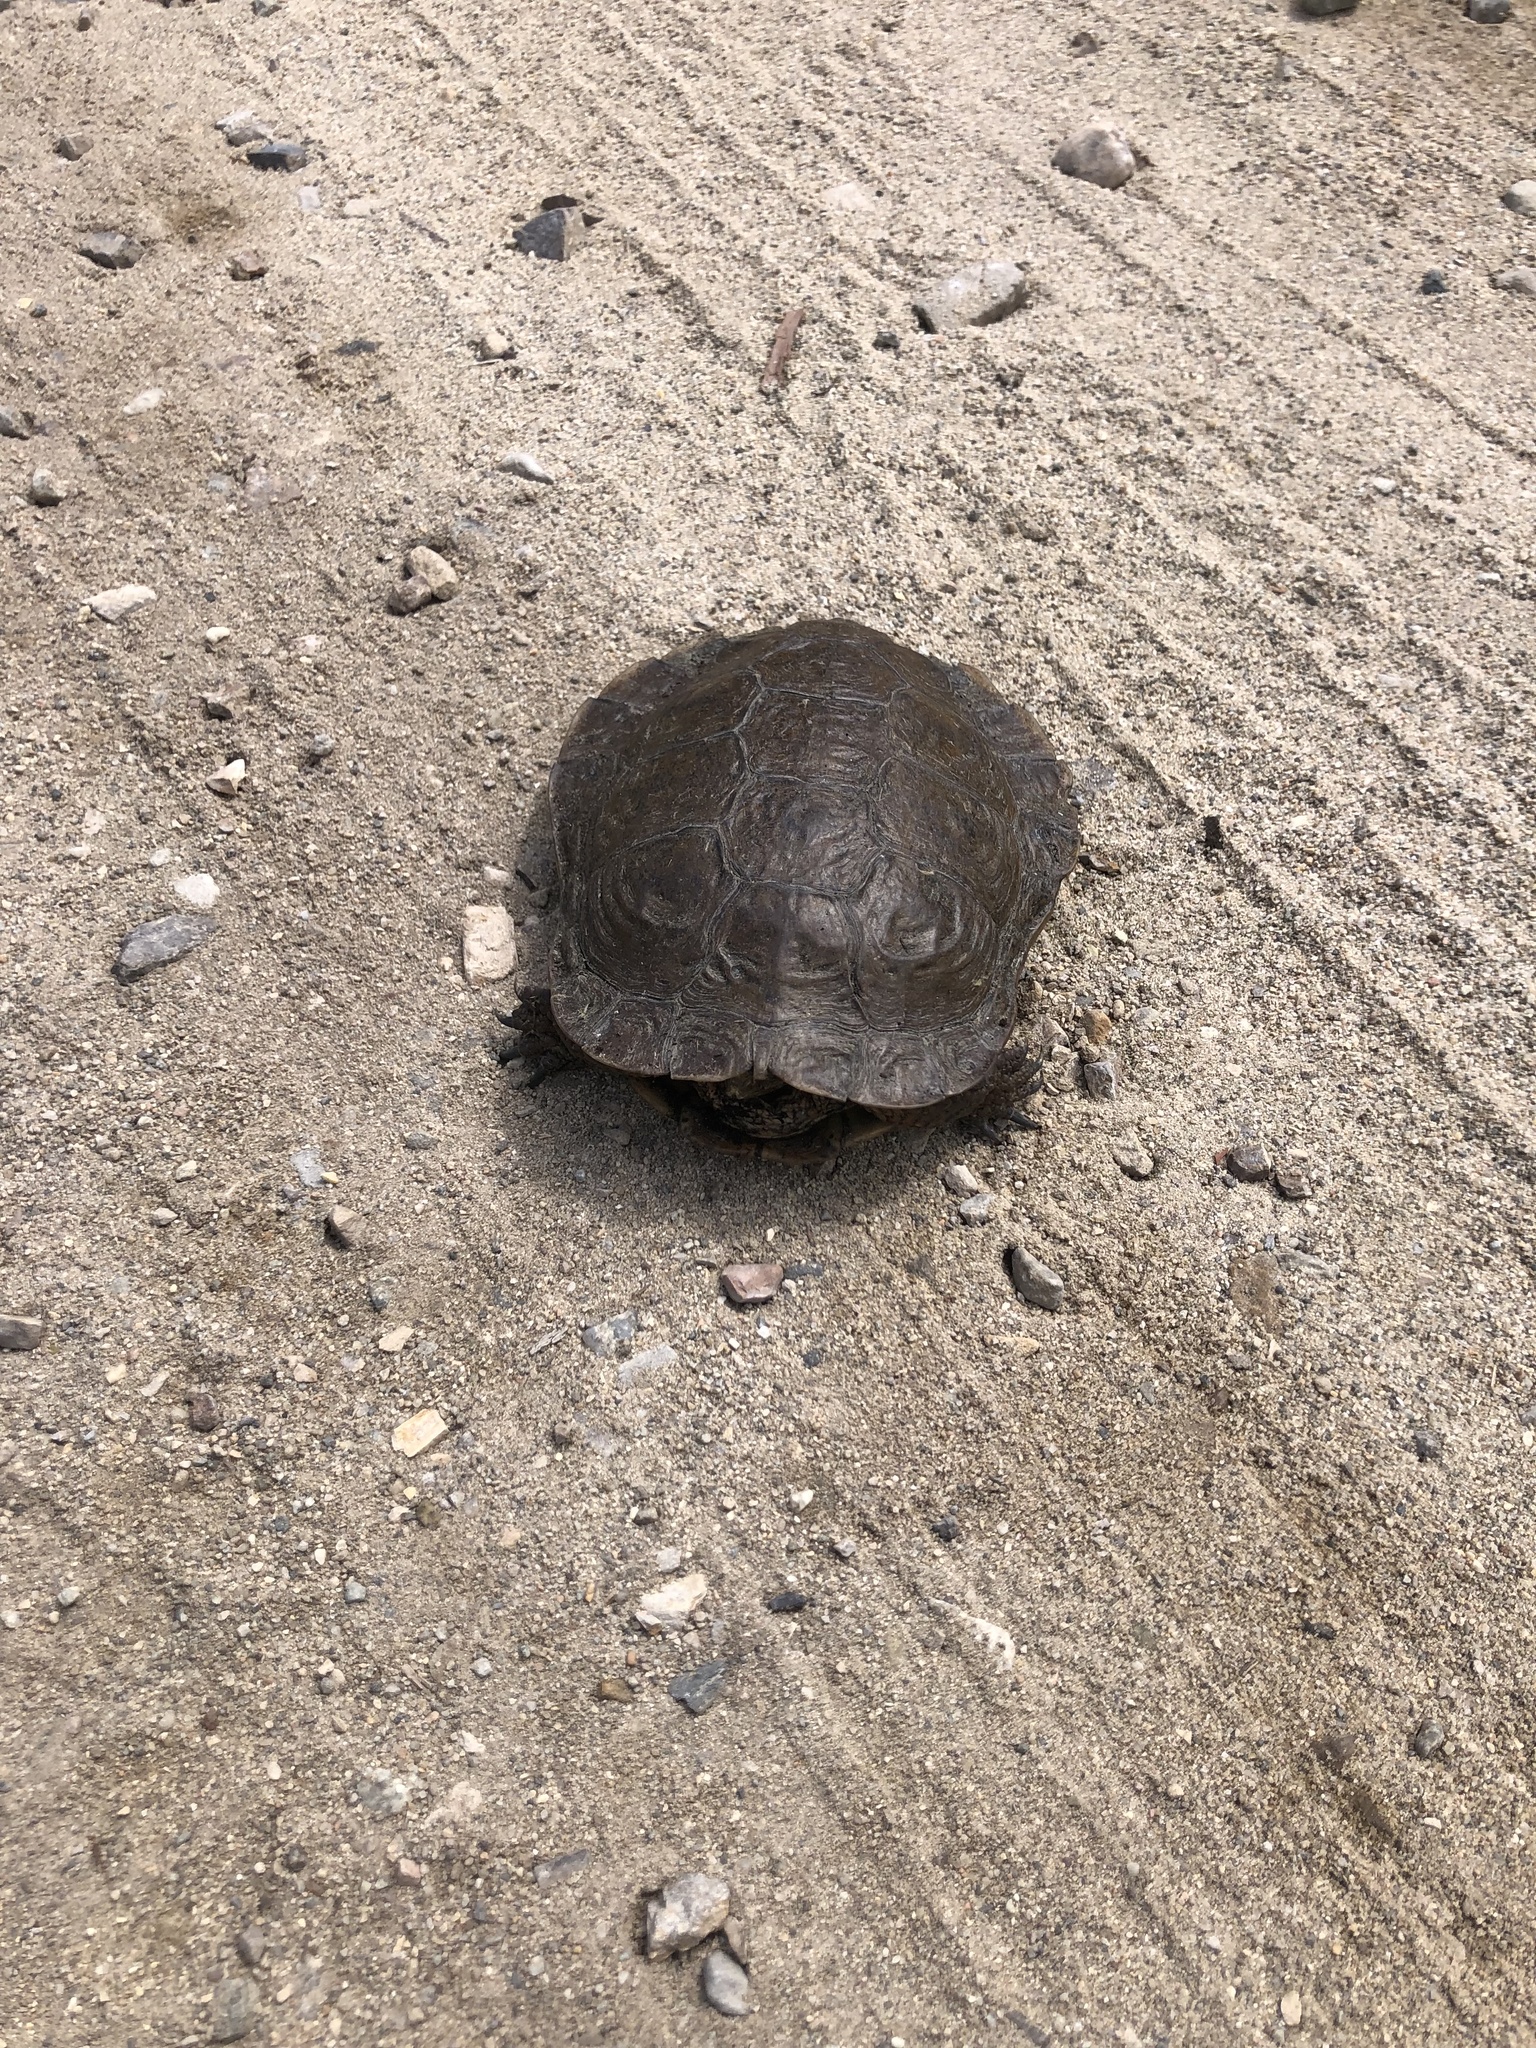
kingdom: Animalia
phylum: Chordata
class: Testudines
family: Emydidae
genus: Actinemys
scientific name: Actinemys marmorata
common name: Western pond turtle
